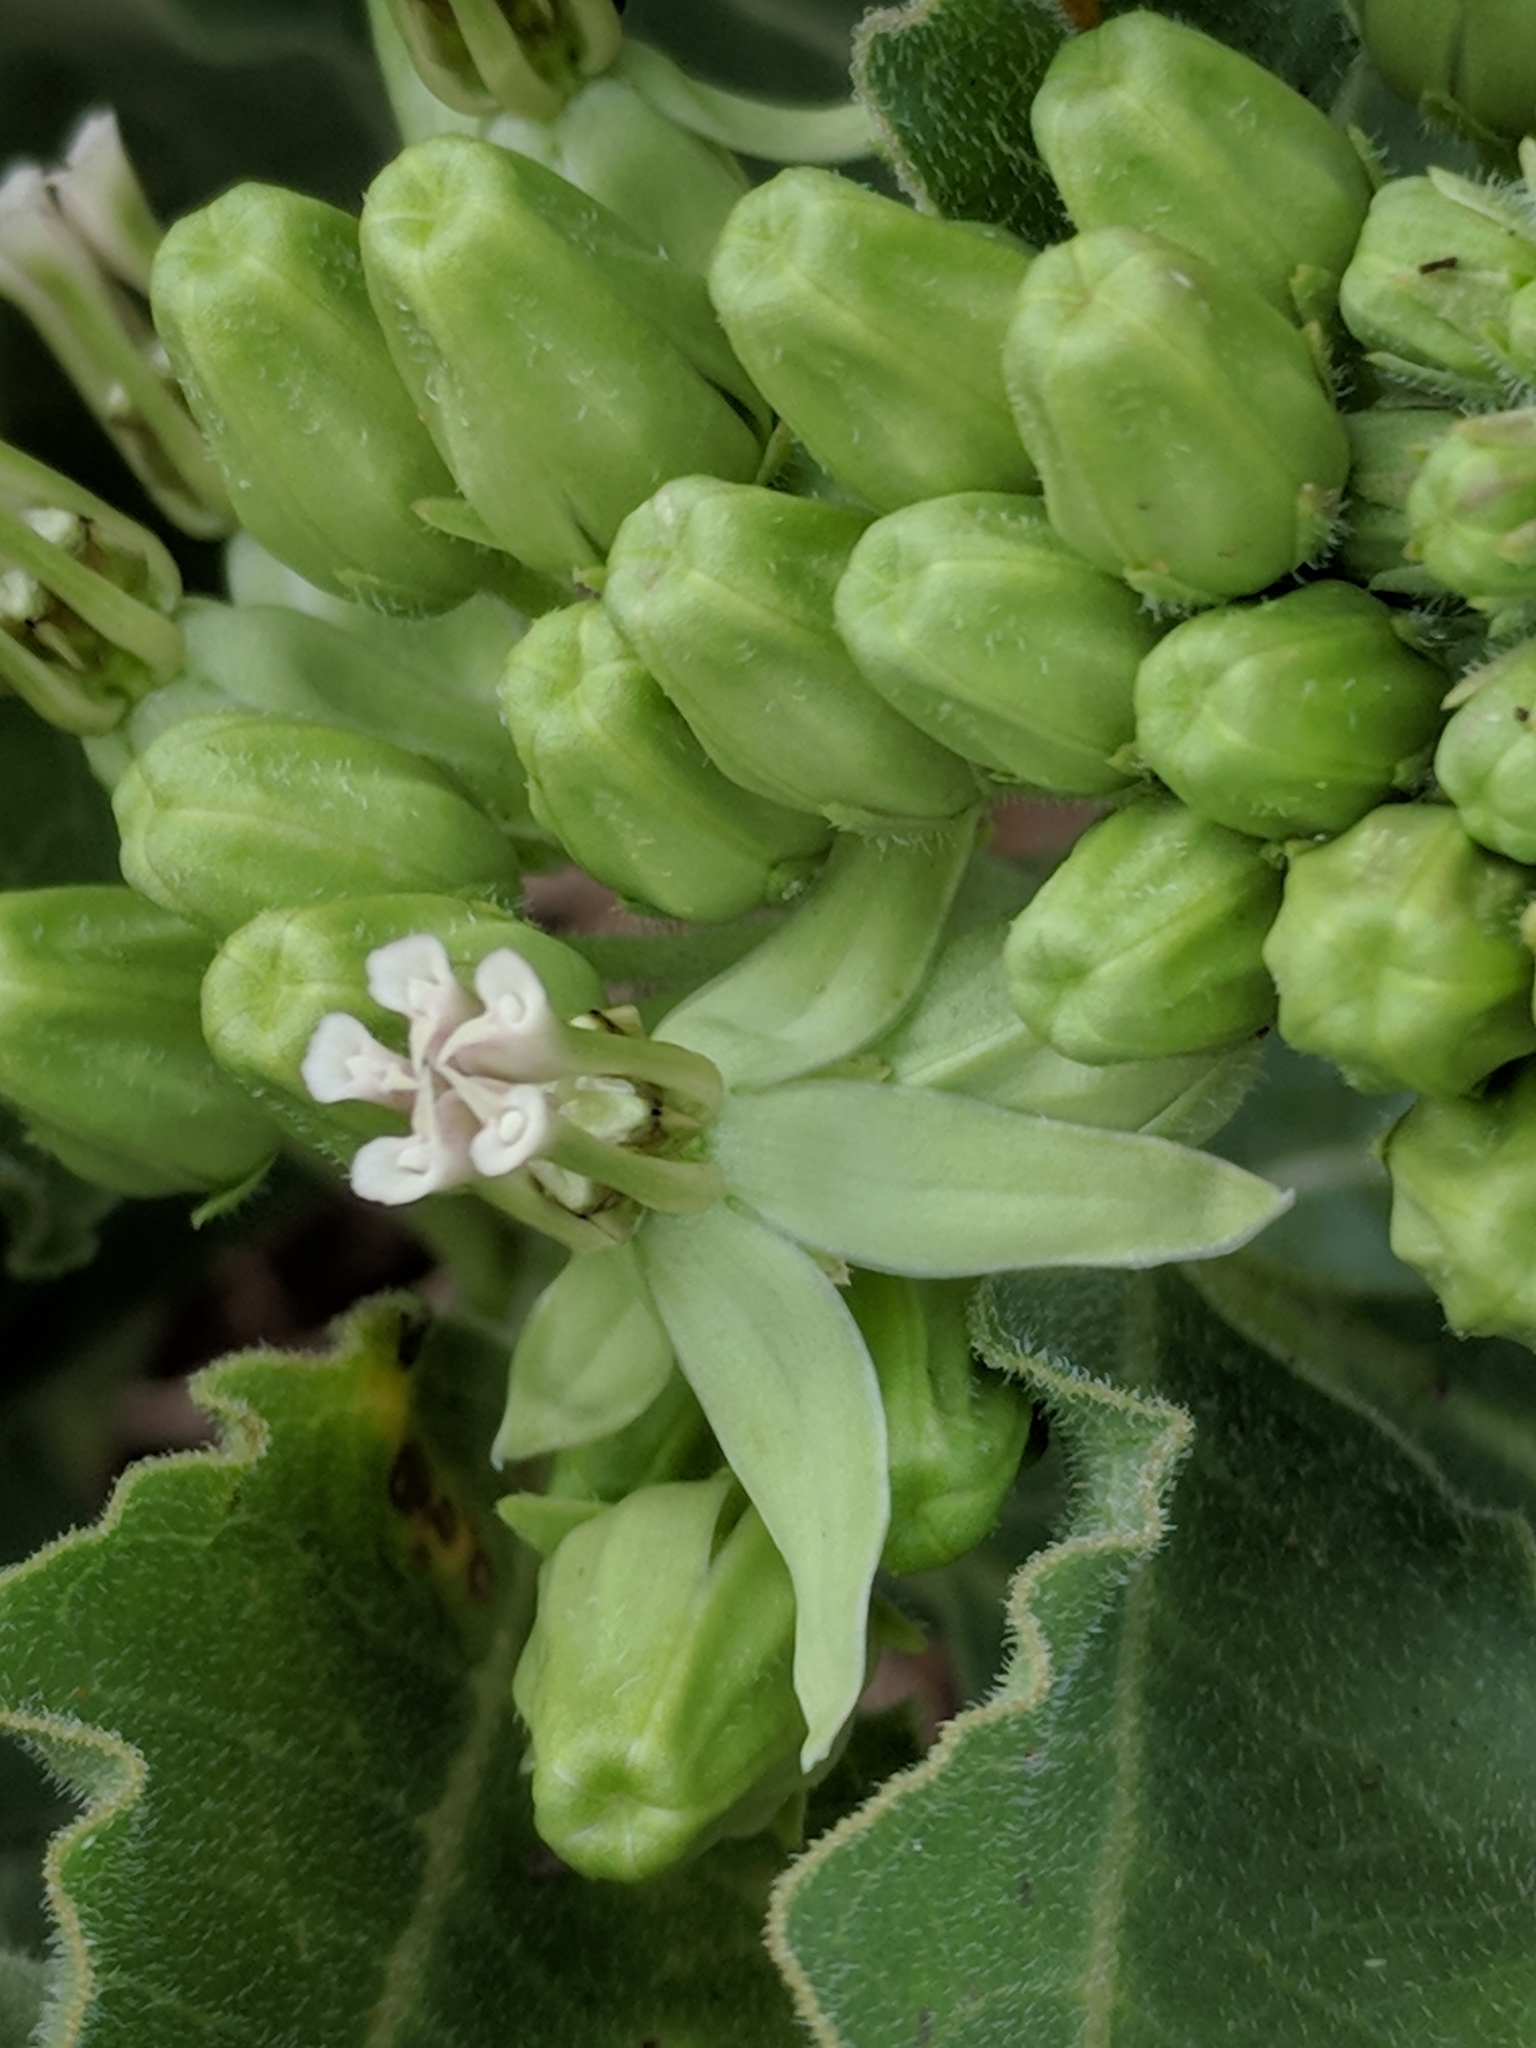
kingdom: Plantae
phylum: Tracheophyta
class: Magnoliopsida
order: Gentianales
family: Apocynaceae
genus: Asclepias
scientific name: Asclepias oenotheroides
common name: Zizotes milkweed
